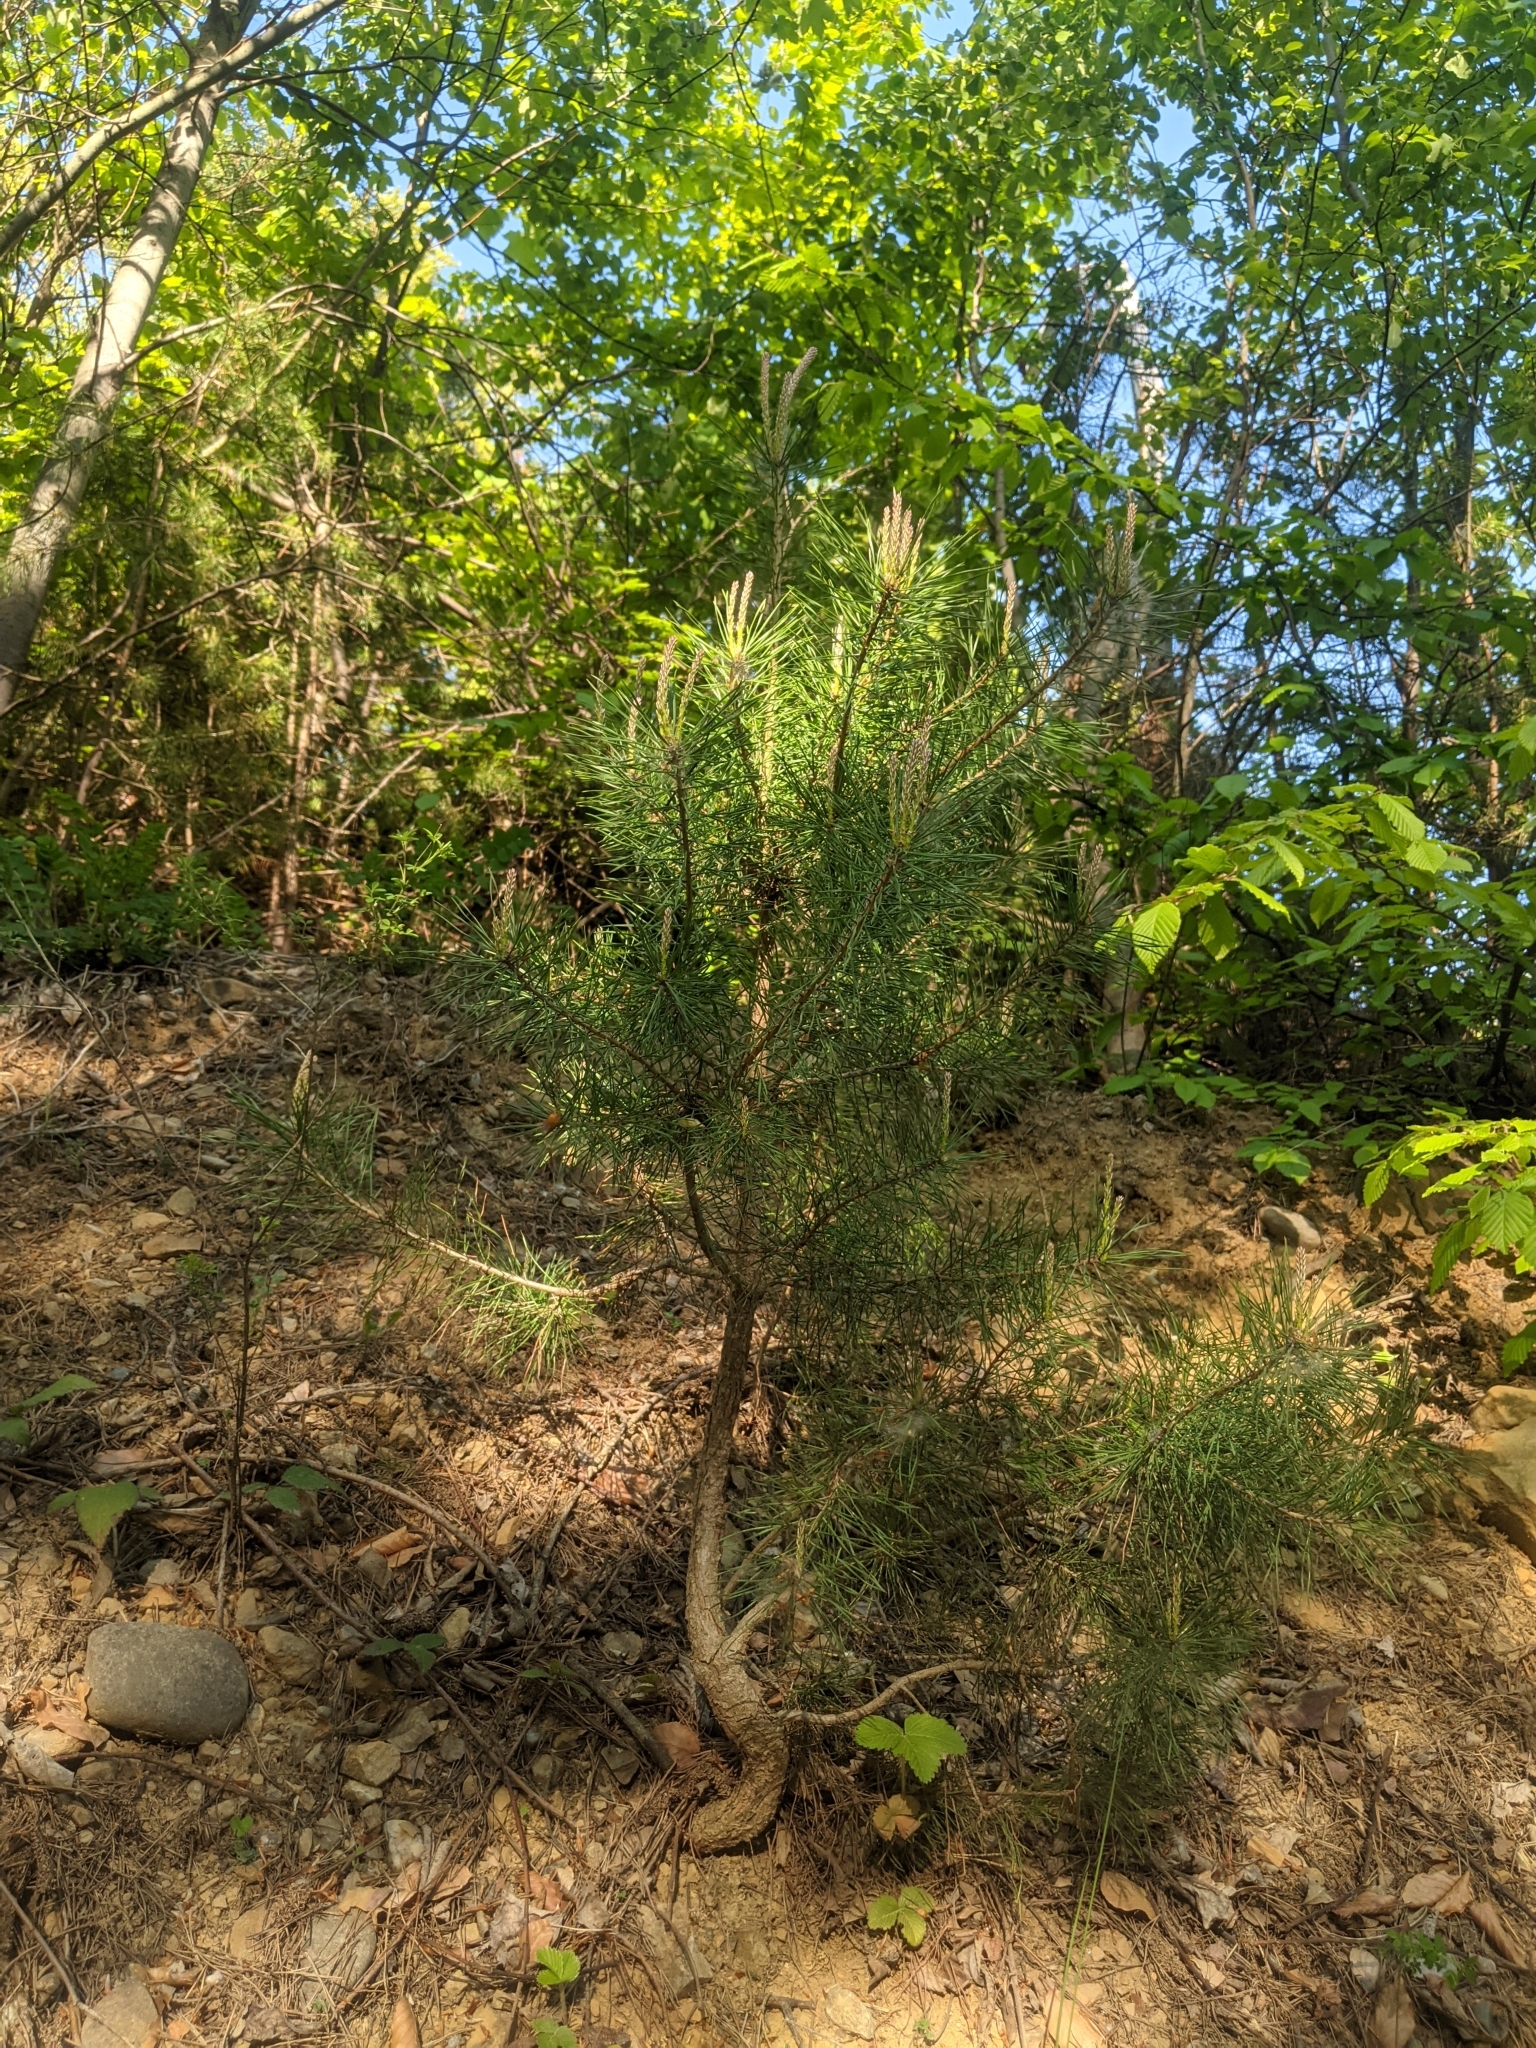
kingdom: Plantae
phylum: Tracheophyta
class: Pinopsida
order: Pinales
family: Pinaceae
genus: Pinus
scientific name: Pinus sylvestris
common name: Scots pine
